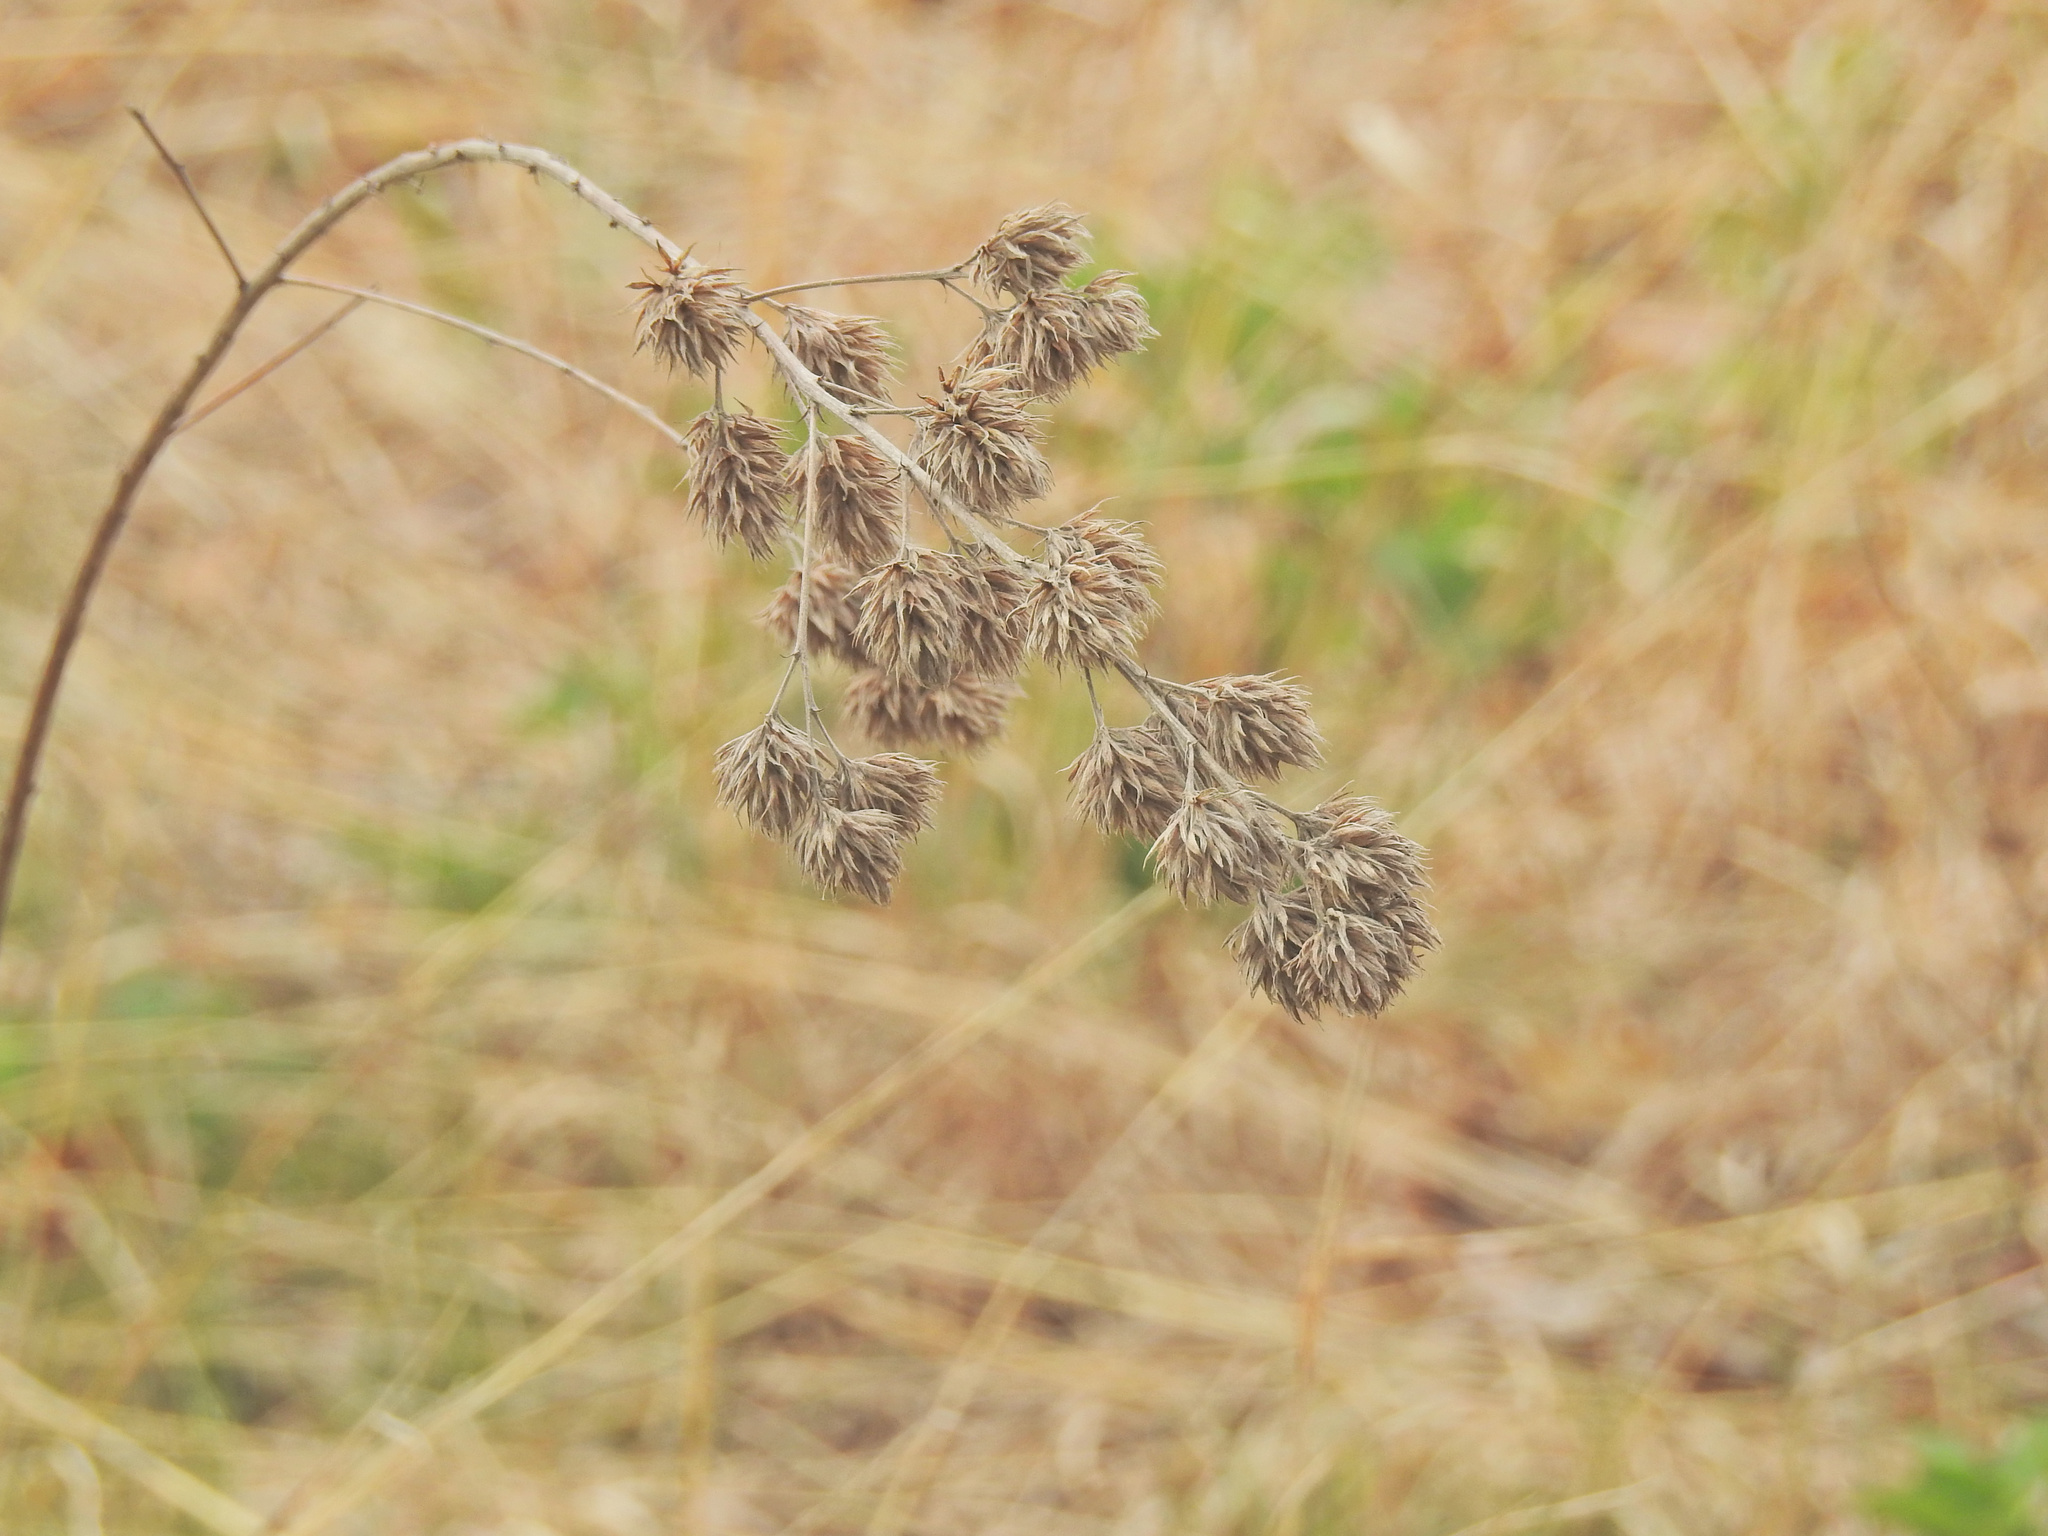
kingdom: Plantae
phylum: Tracheophyta
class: Magnoliopsida
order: Fabales
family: Fabaceae
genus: Lespedeza
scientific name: Lespedeza capitata
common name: Dusty clover
